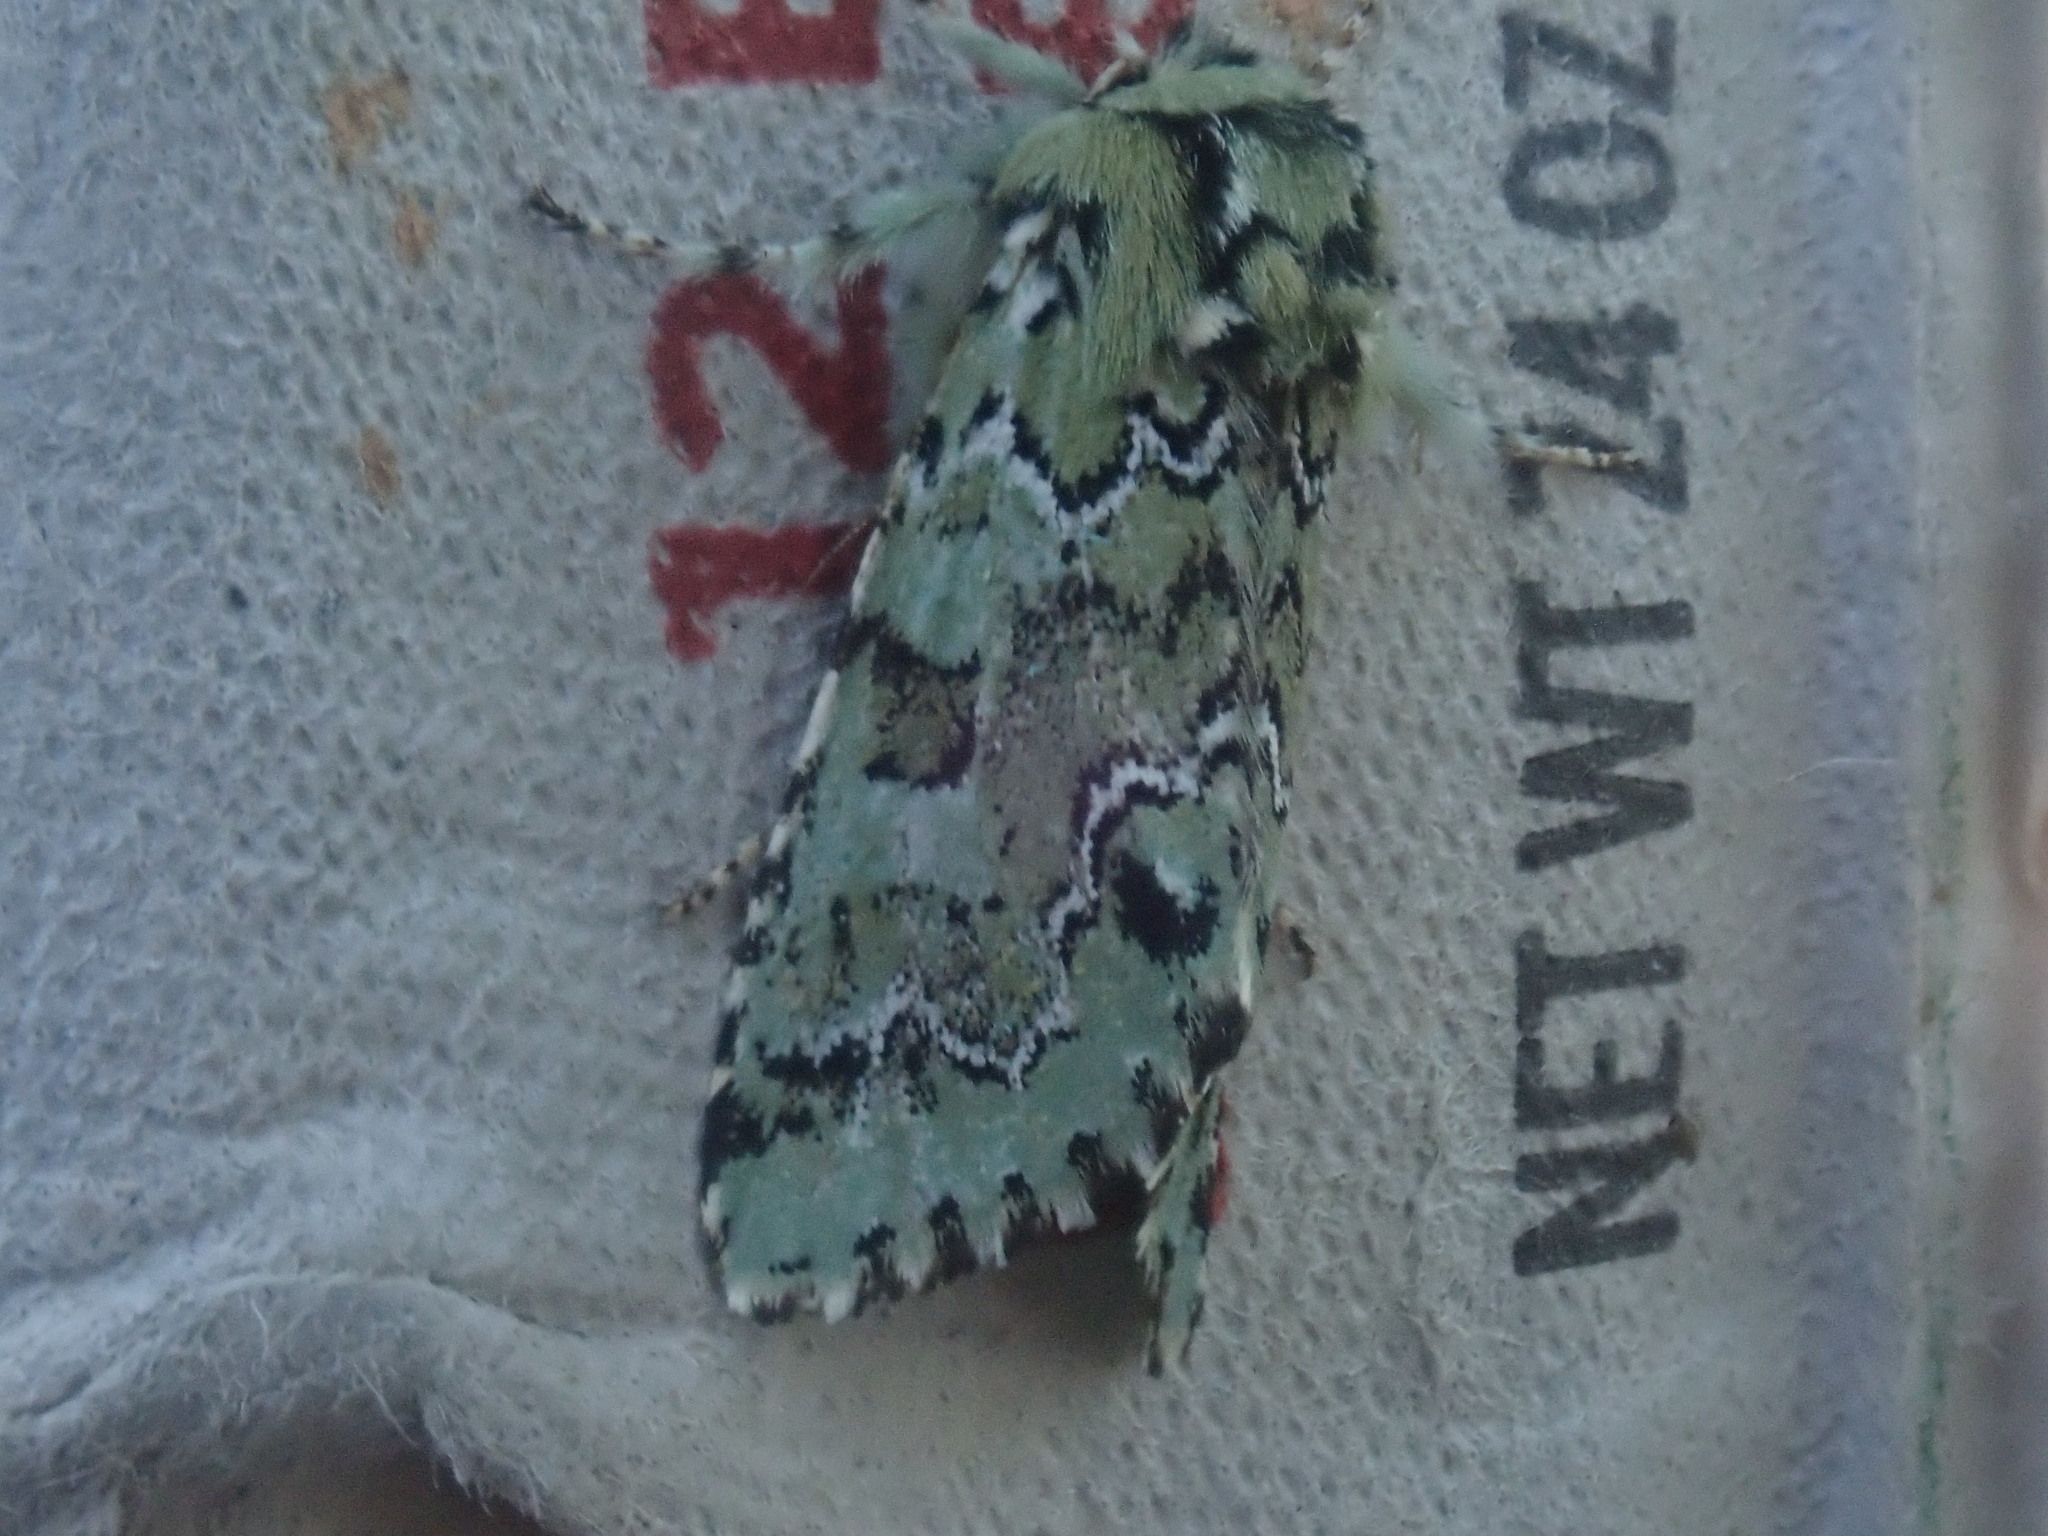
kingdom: Animalia
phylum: Arthropoda
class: Insecta
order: Lepidoptera
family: Noctuidae
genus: Feralia
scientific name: Feralia jocosa
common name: Joker
